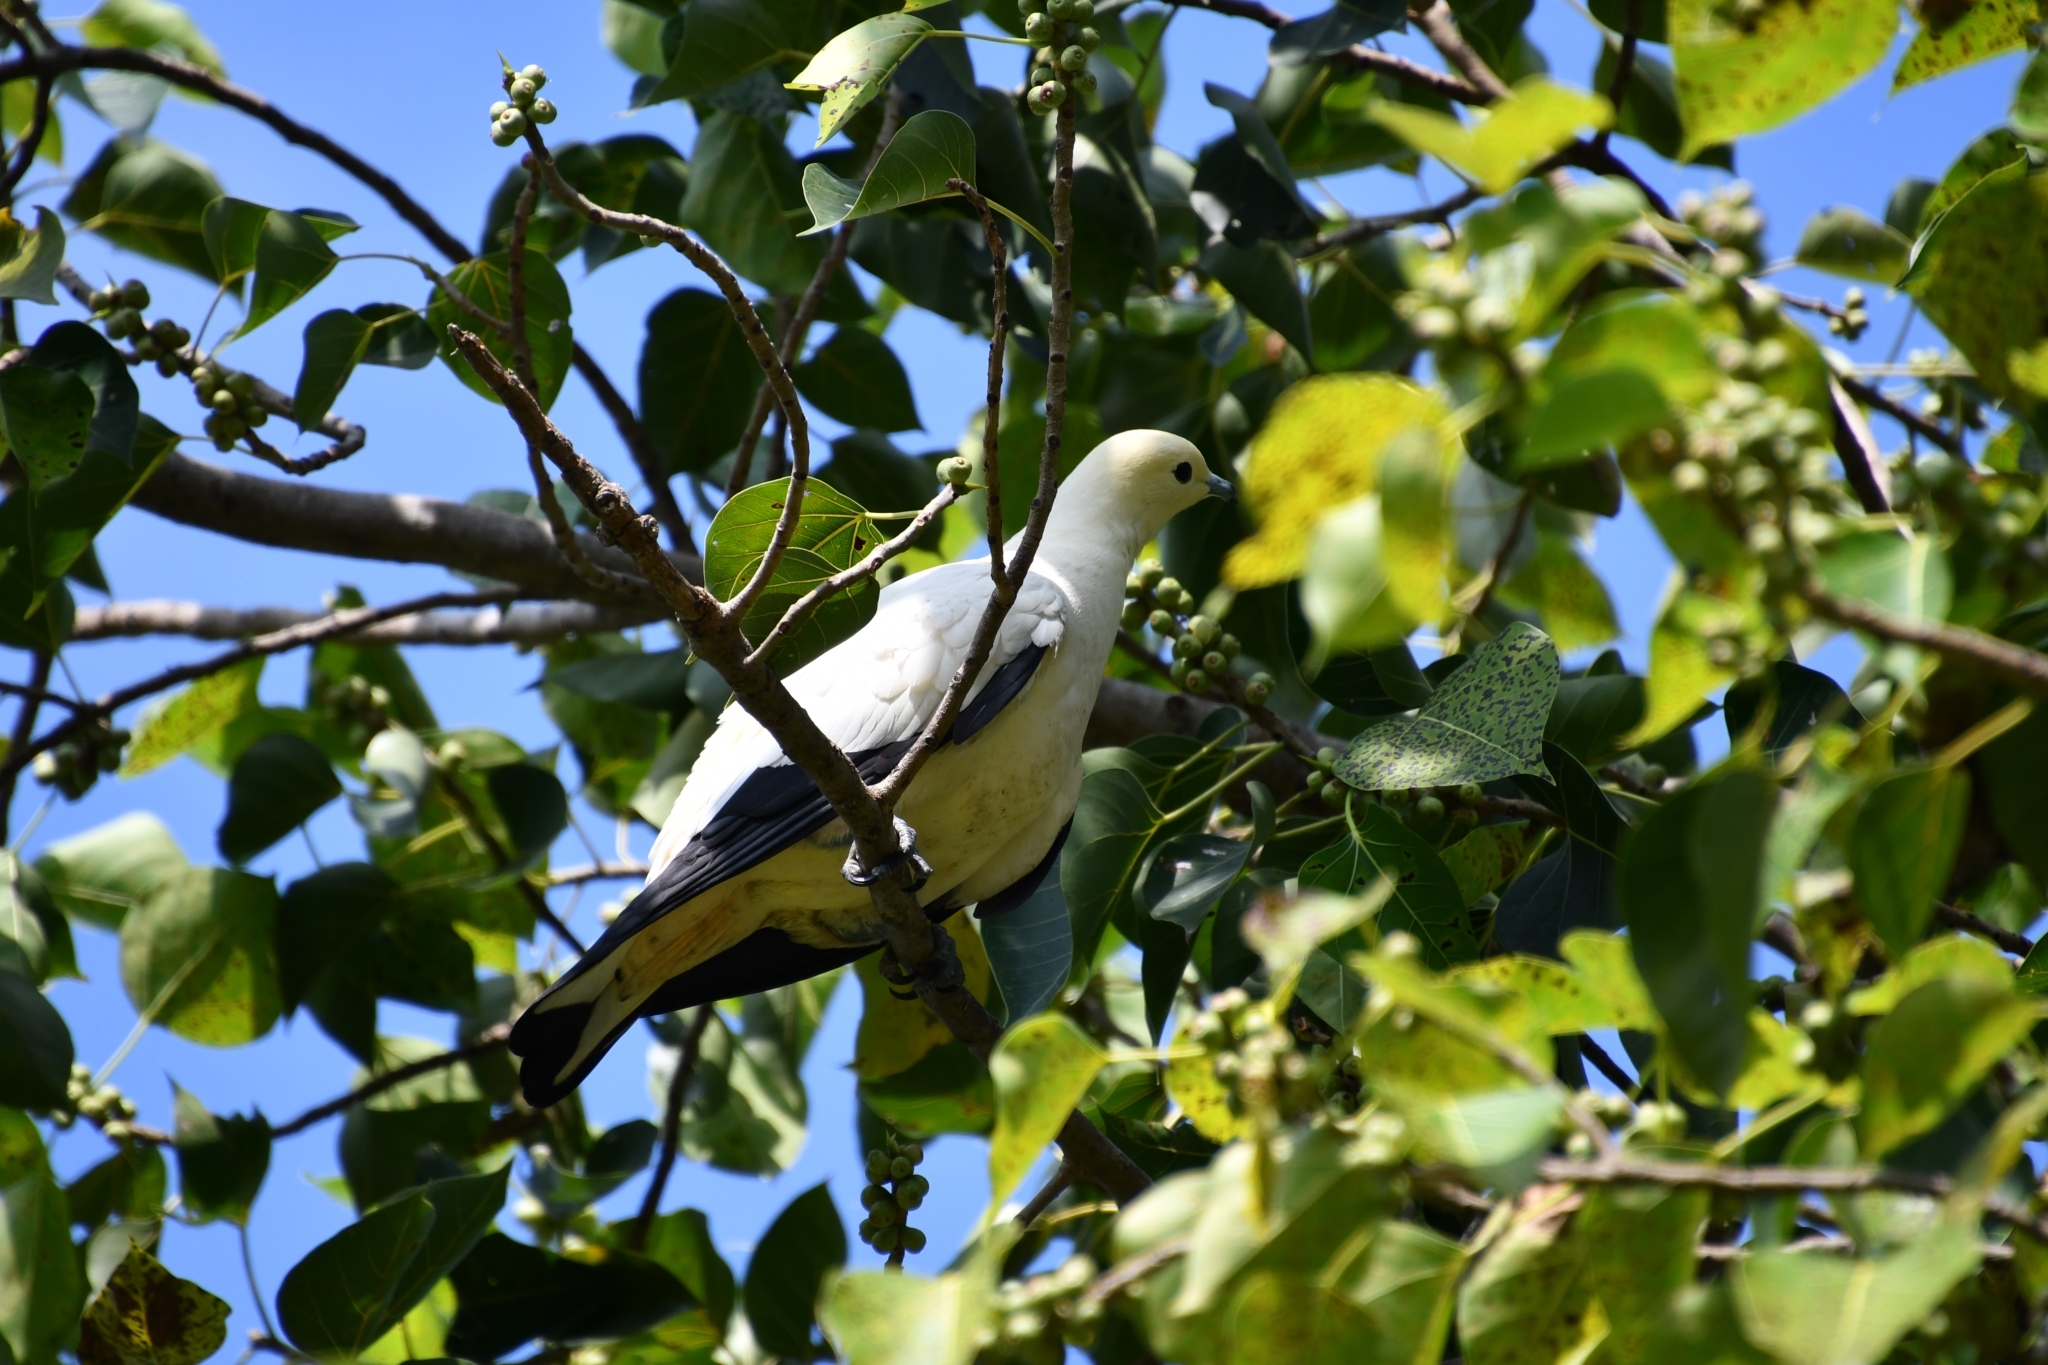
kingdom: Animalia
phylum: Chordata
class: Aves
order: Columbiformes
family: Columbidae
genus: Ducula
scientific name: Ducula bicolor
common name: Pied imperial pigeon
